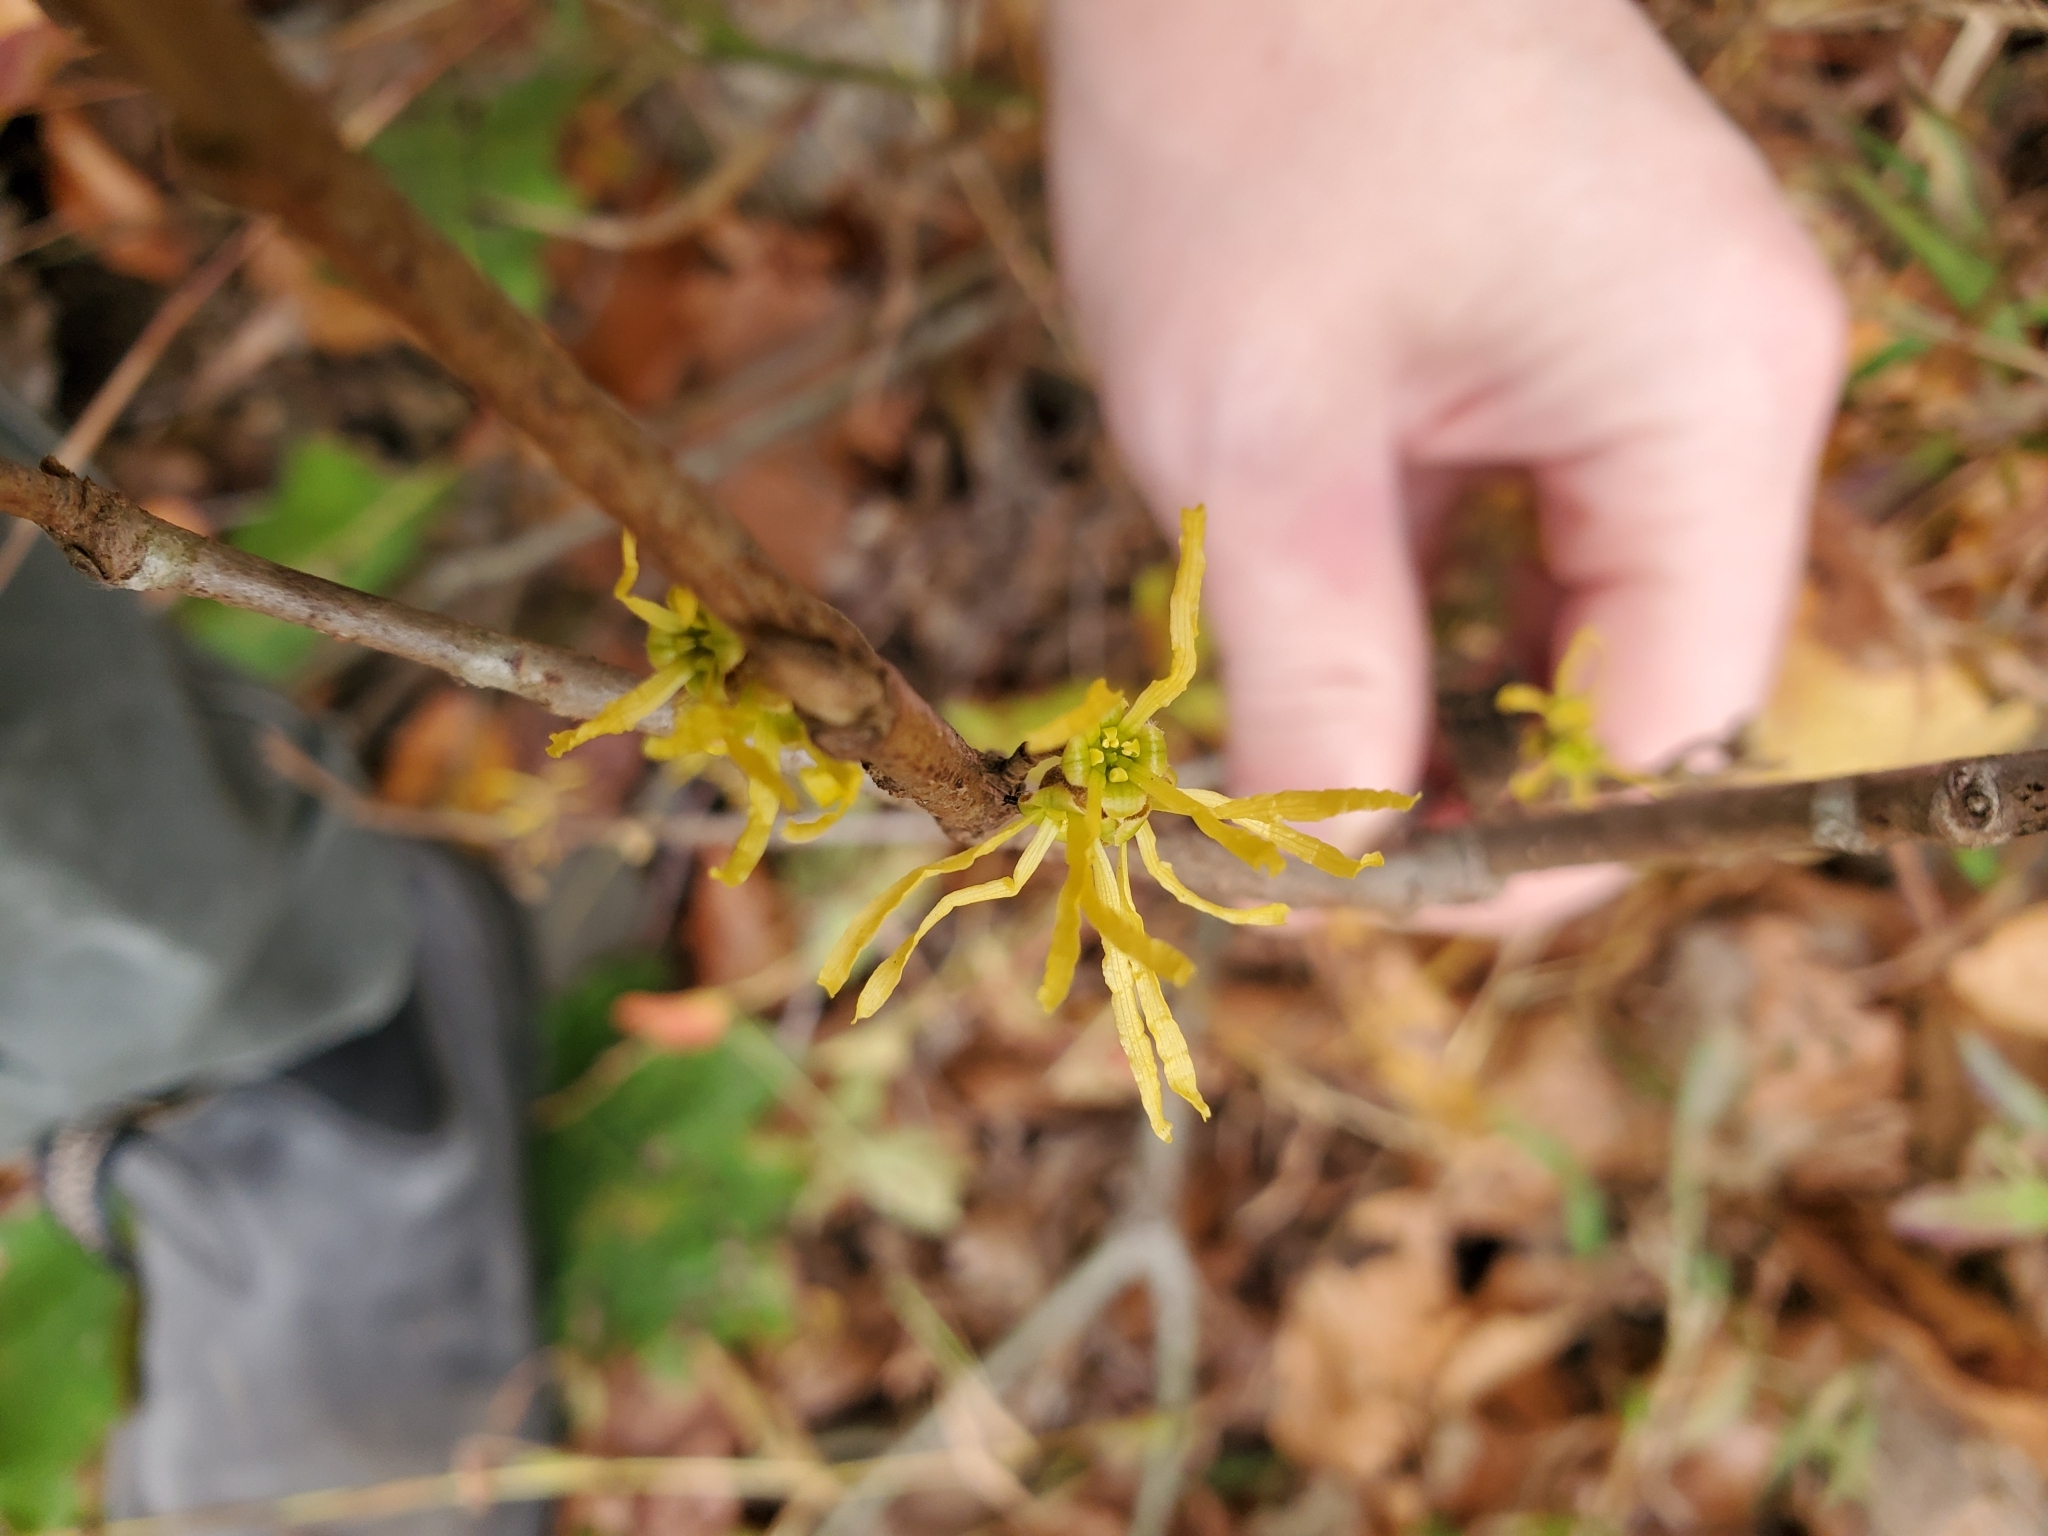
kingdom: Plantae
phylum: Tracheophyta
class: Magnoliopsida
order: Saxifragales
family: Hamamelidaceae
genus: Hamamelis
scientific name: Hamamelis virginiana
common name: Witch-hazel
